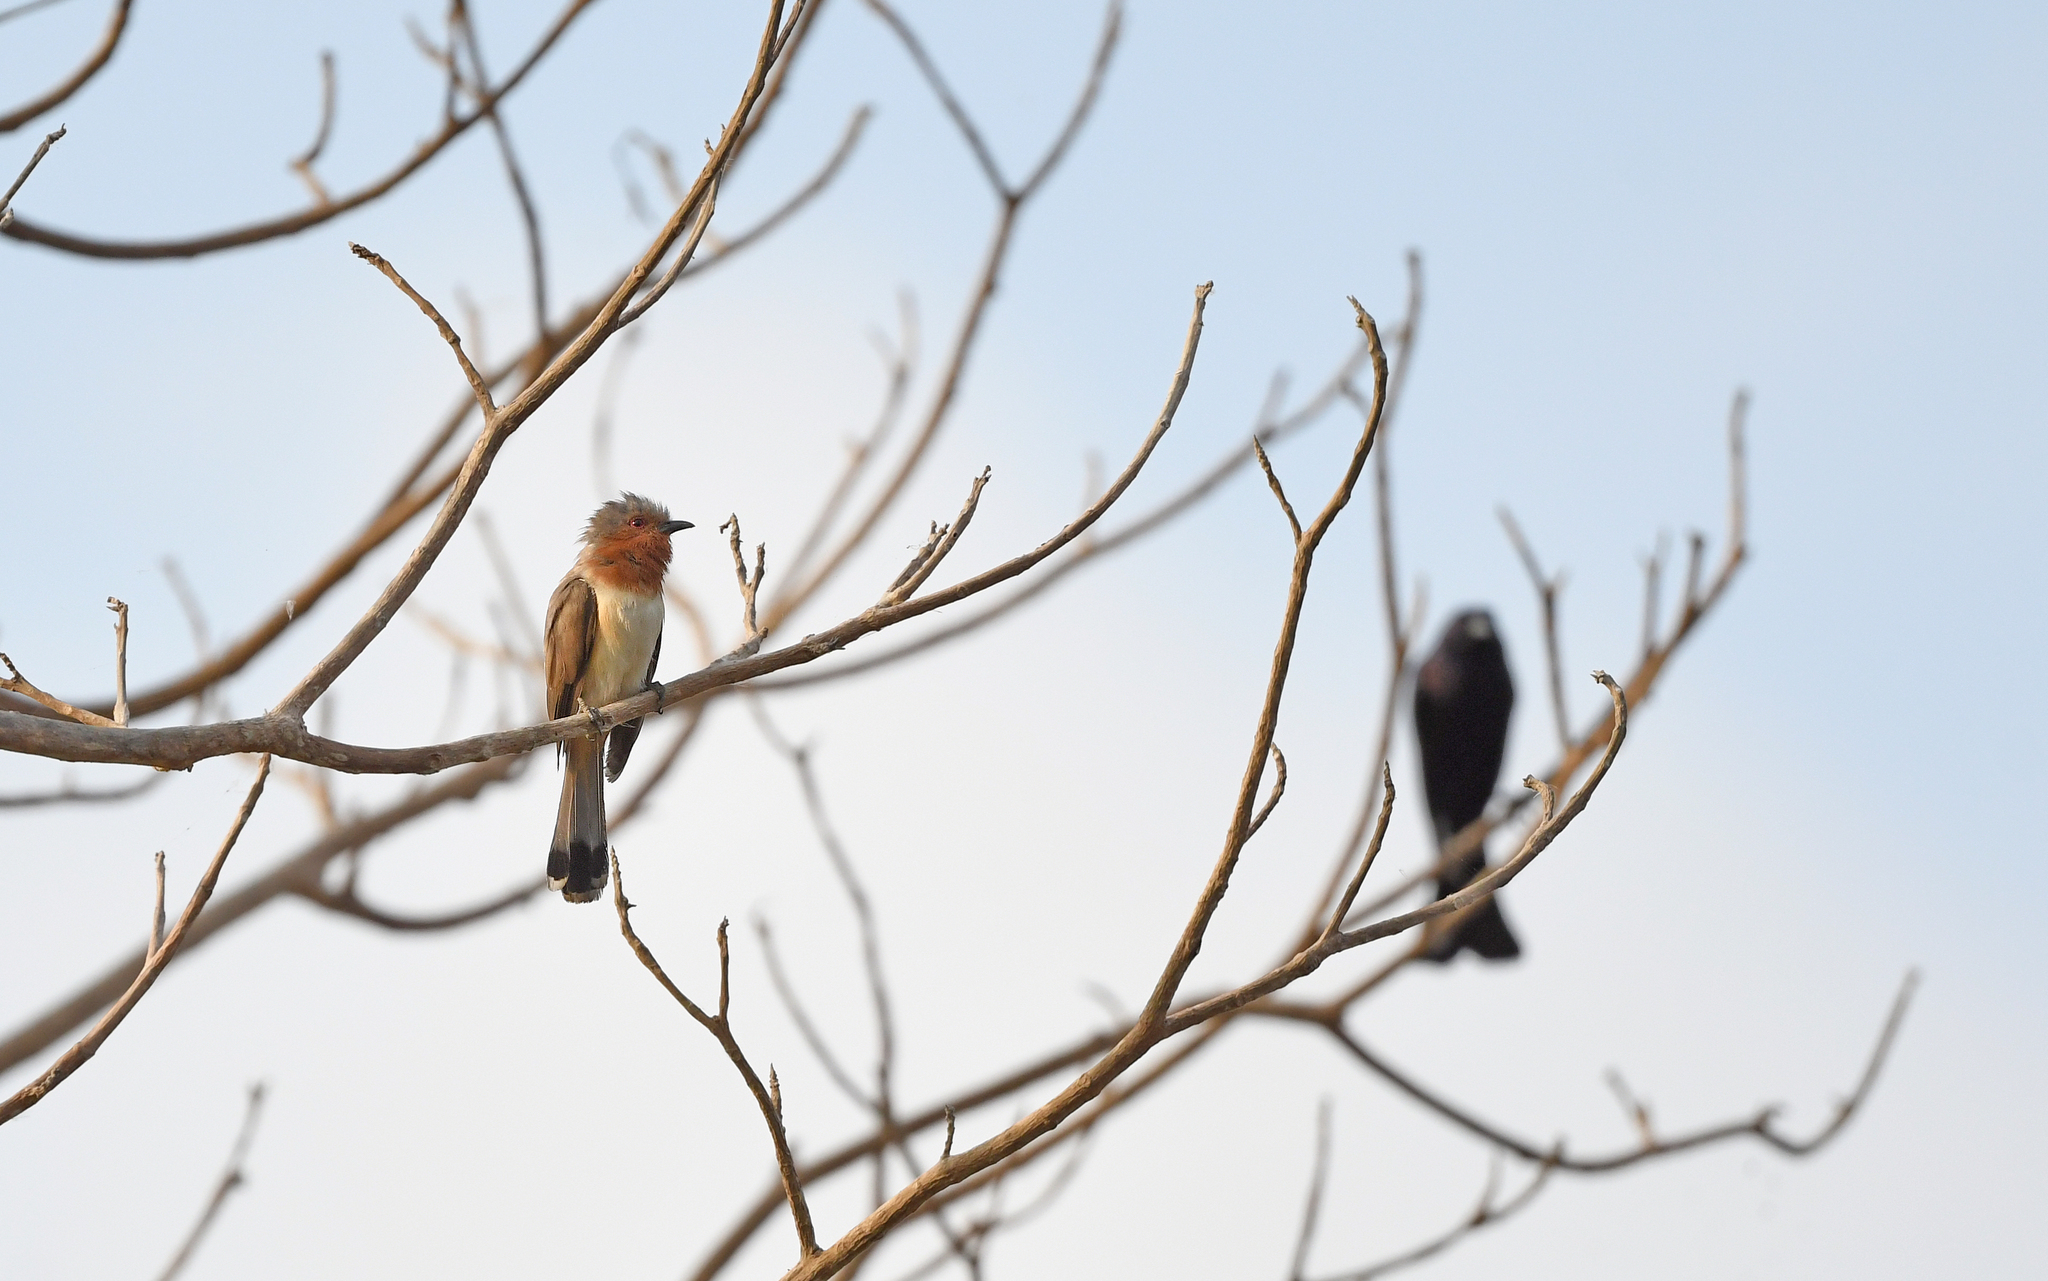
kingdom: Animalia
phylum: Chordata
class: Aves
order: Cuculiformes
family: Cuculidae
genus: Coccyzus
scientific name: Coccyzus pumilus
